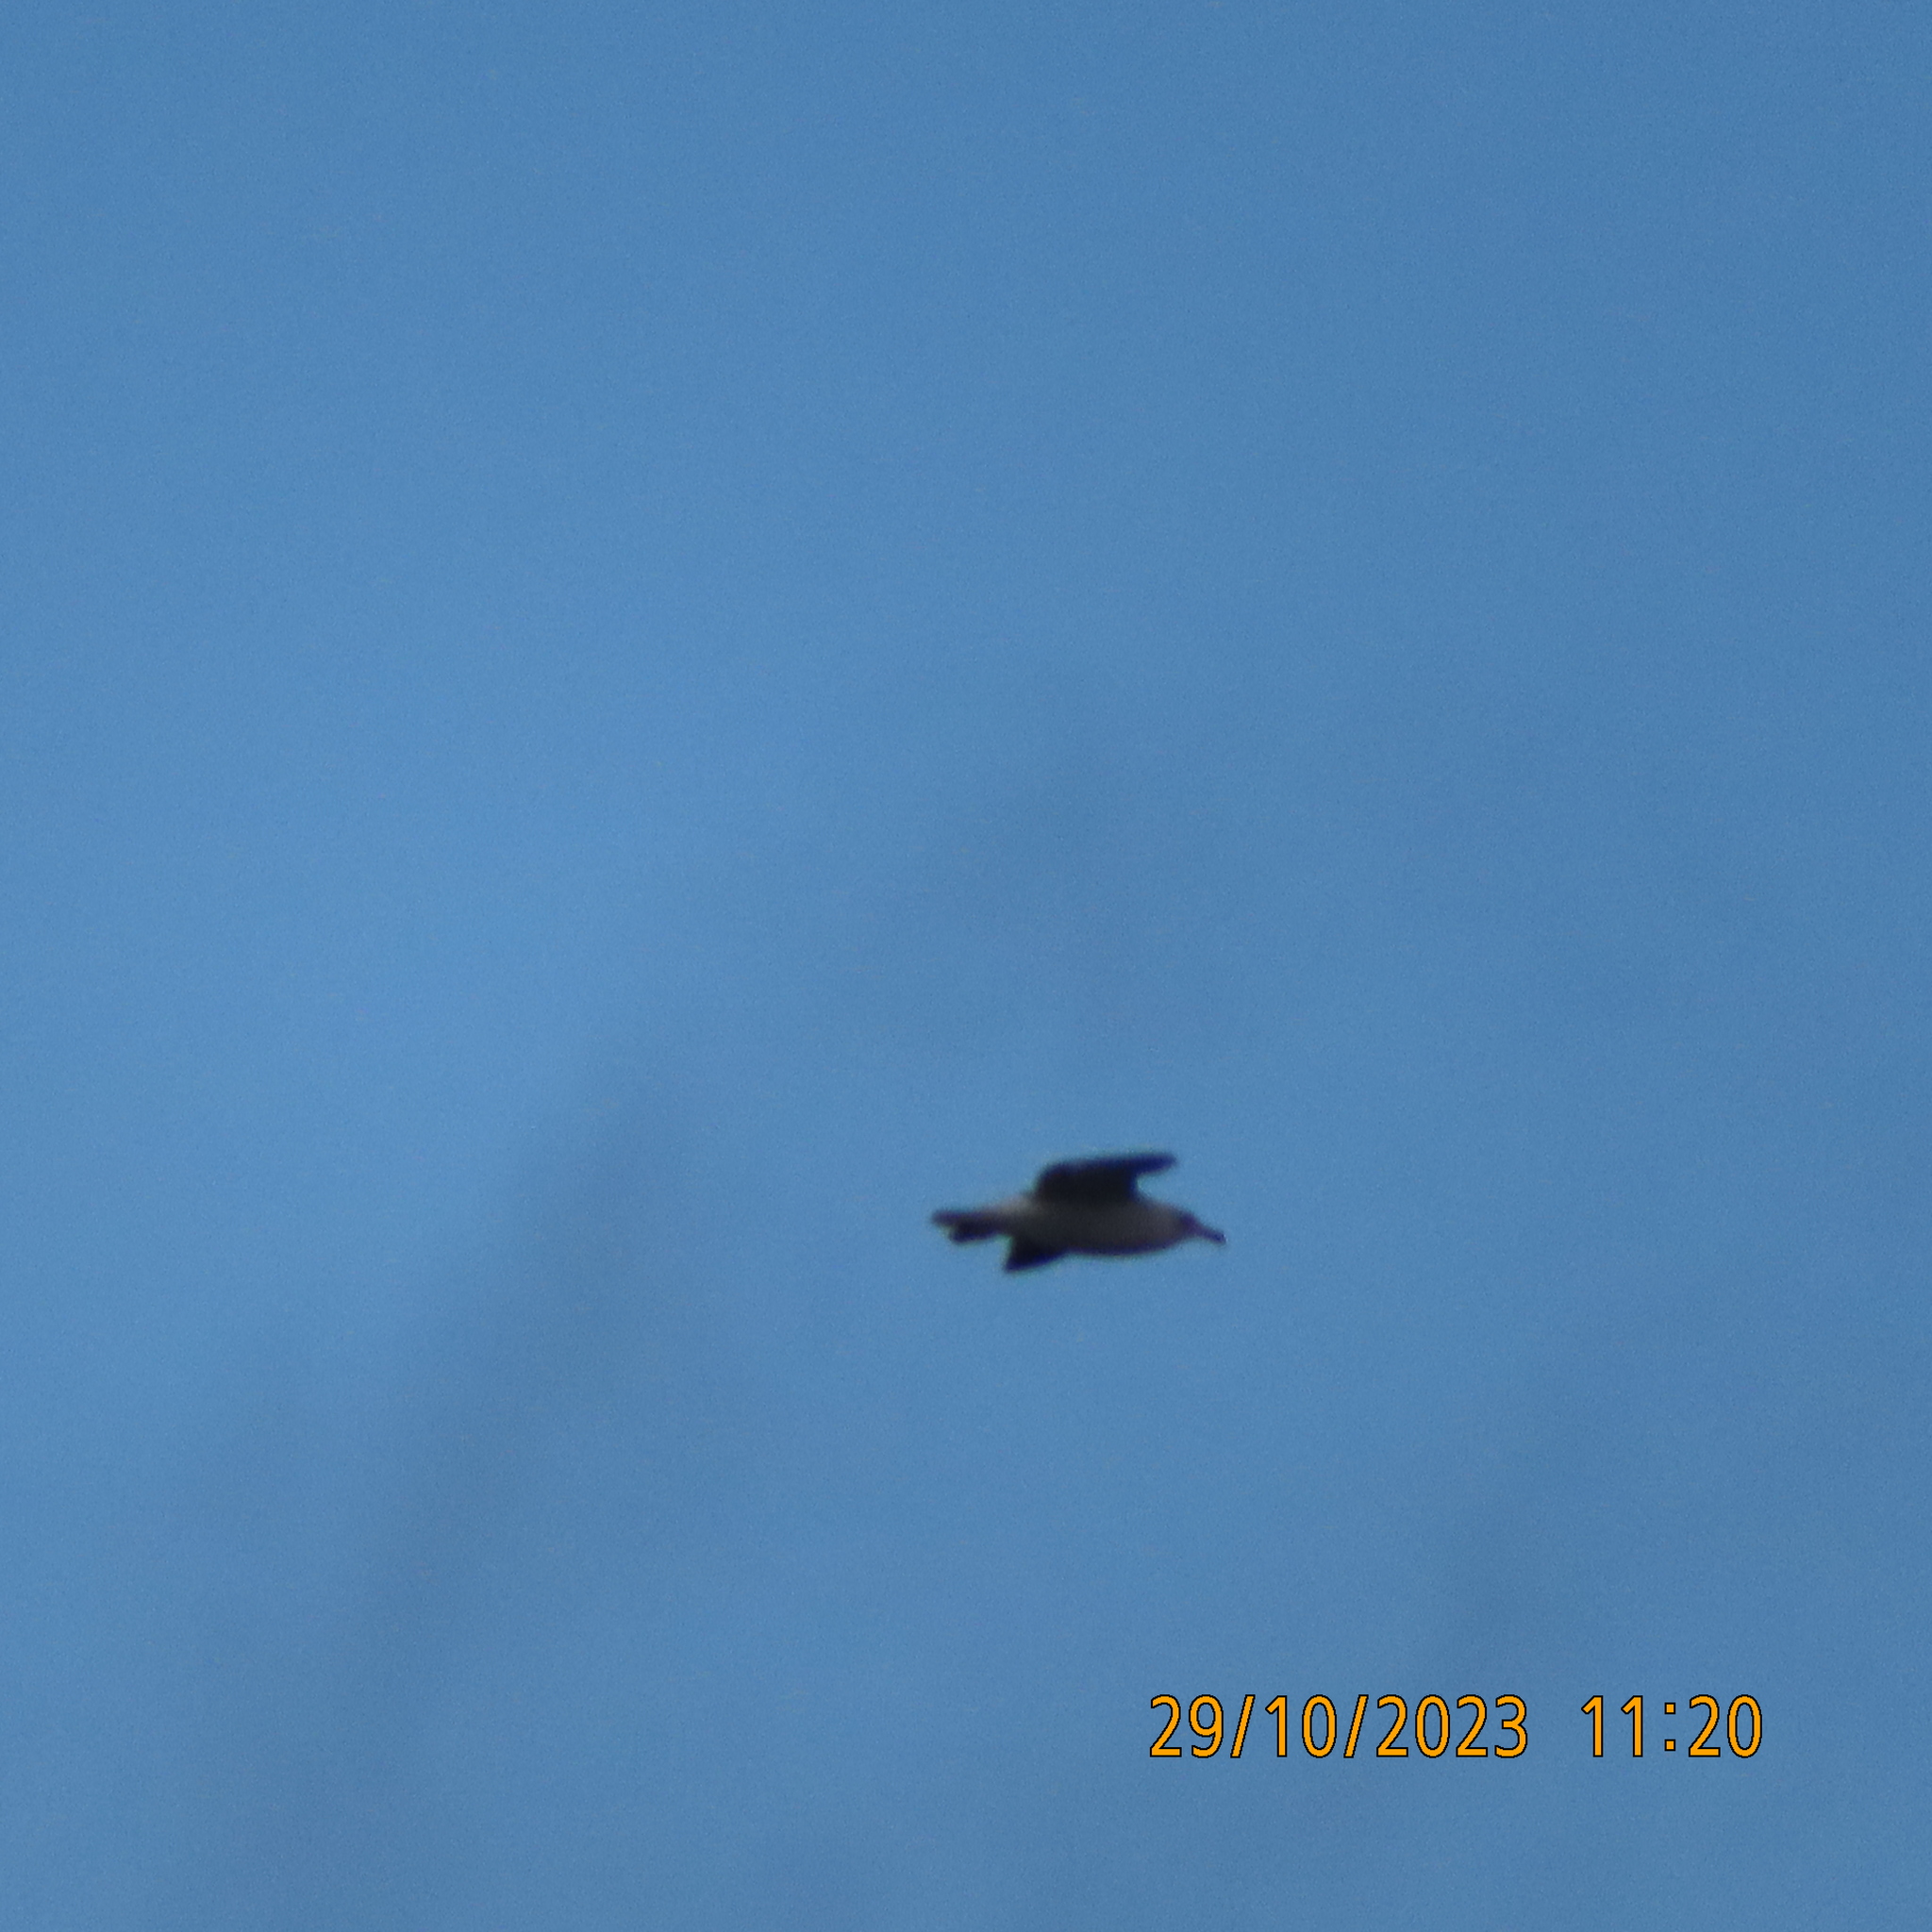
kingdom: Animalia
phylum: Chordata
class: Aves
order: Charadriiformes
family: Laridae
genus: Chroicocephalus
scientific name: Chroicocephalus ridibundus
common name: Black-headed gull
